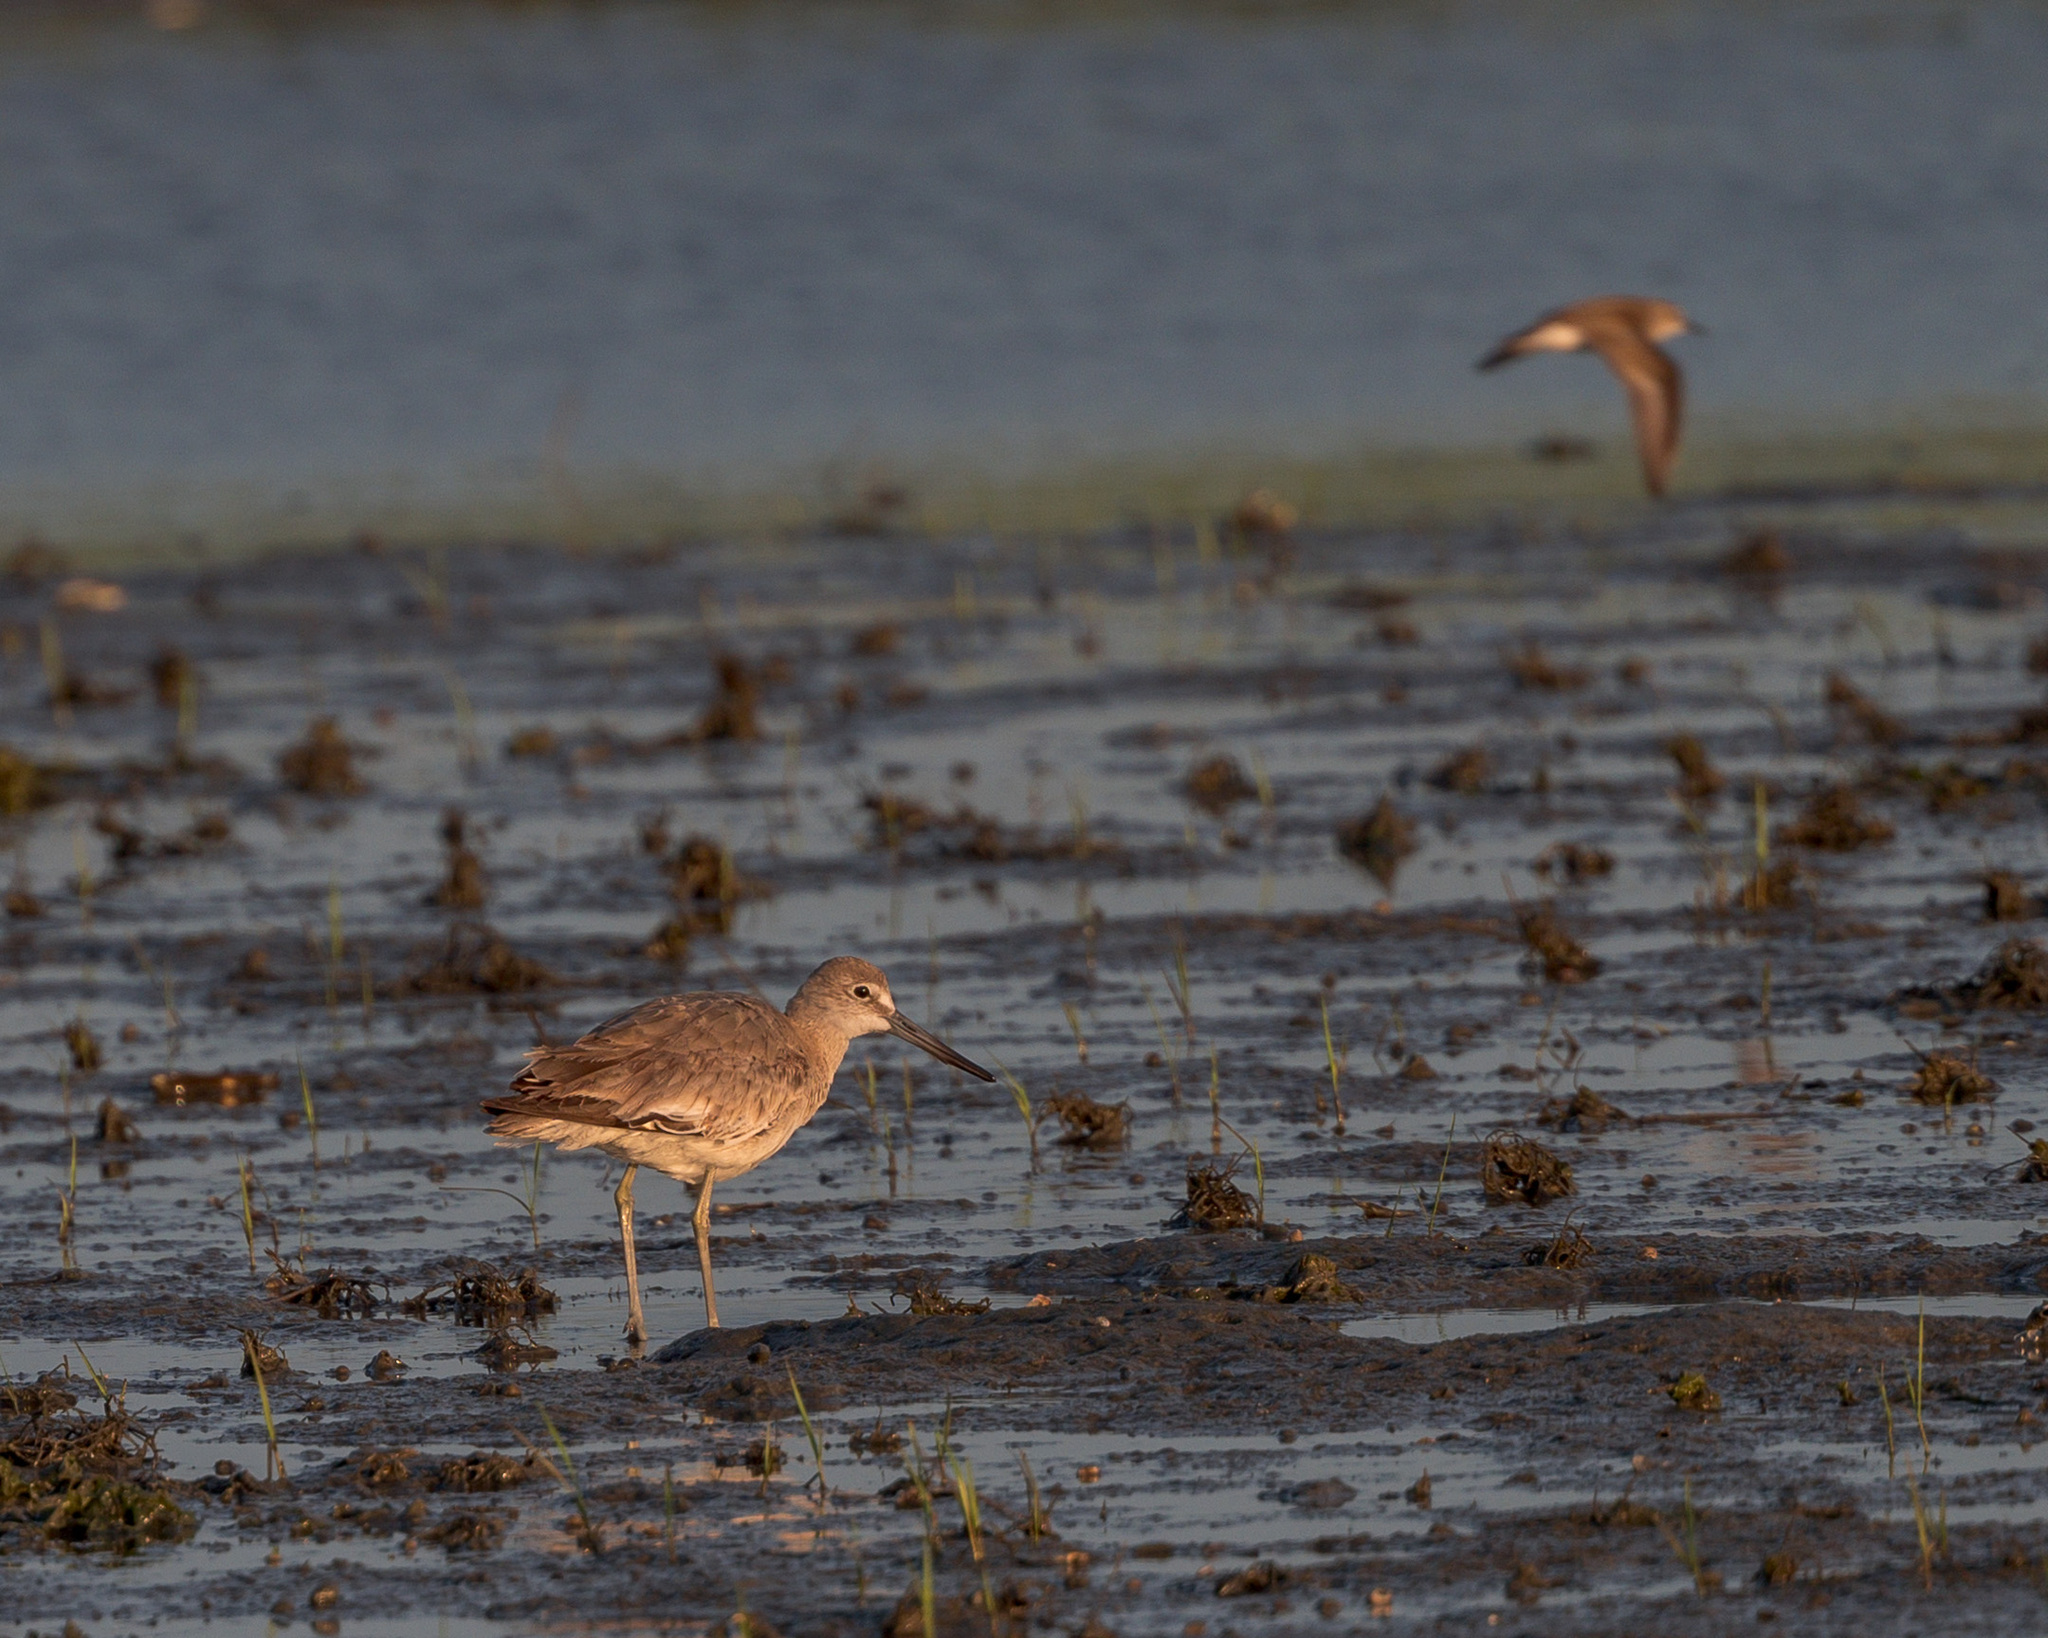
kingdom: Animalia
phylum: Chordata
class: Aves
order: Charadriiformes
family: Scolopacidae
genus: Tringa
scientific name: Tringa semipalmata
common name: Willet
